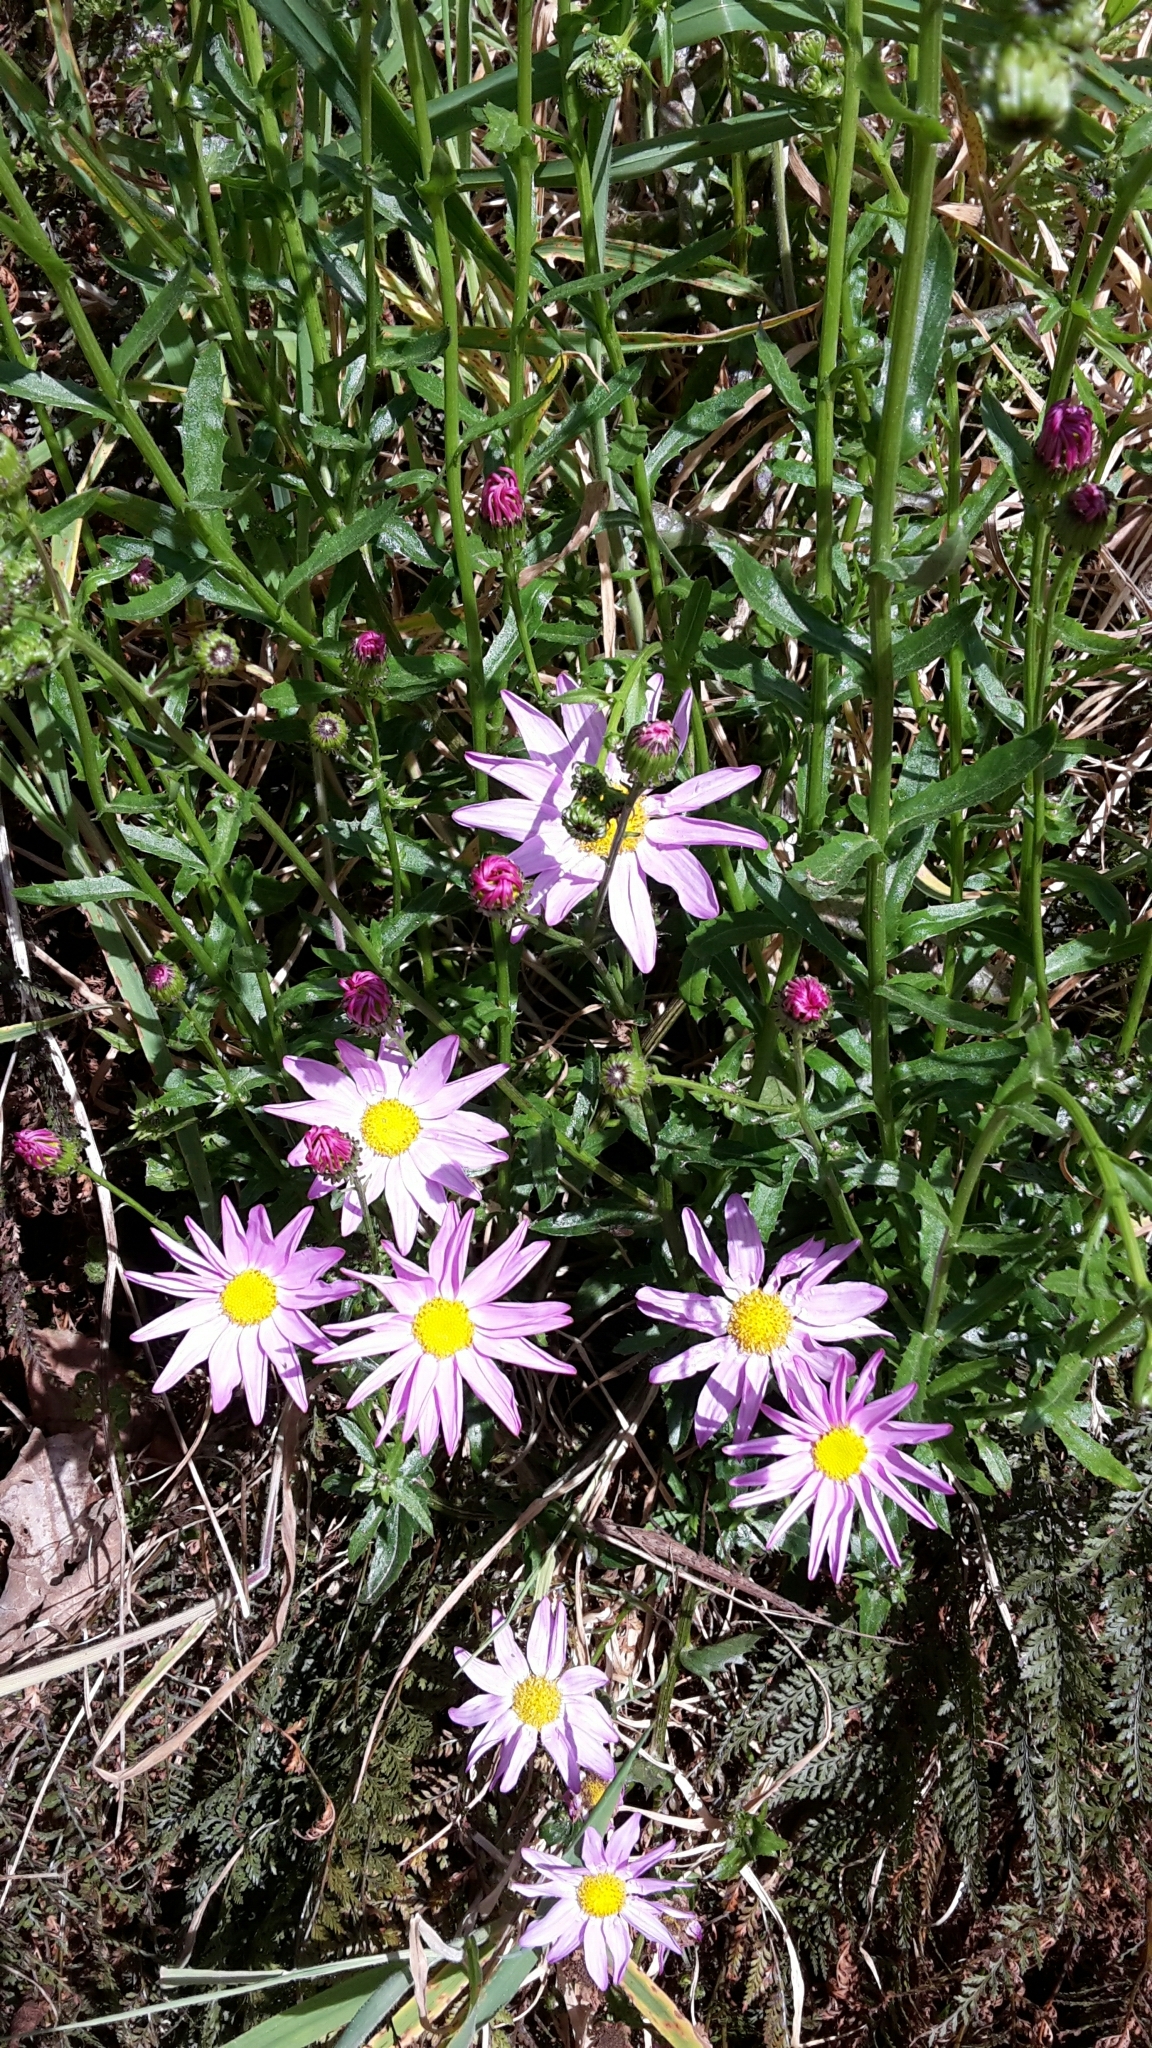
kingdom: Plantae
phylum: Tracheophyta
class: Magnoliopsida
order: Asterales
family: Asteraceae
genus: Senecio
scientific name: Senecio glastifolius
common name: Woad-leaved ragwort
